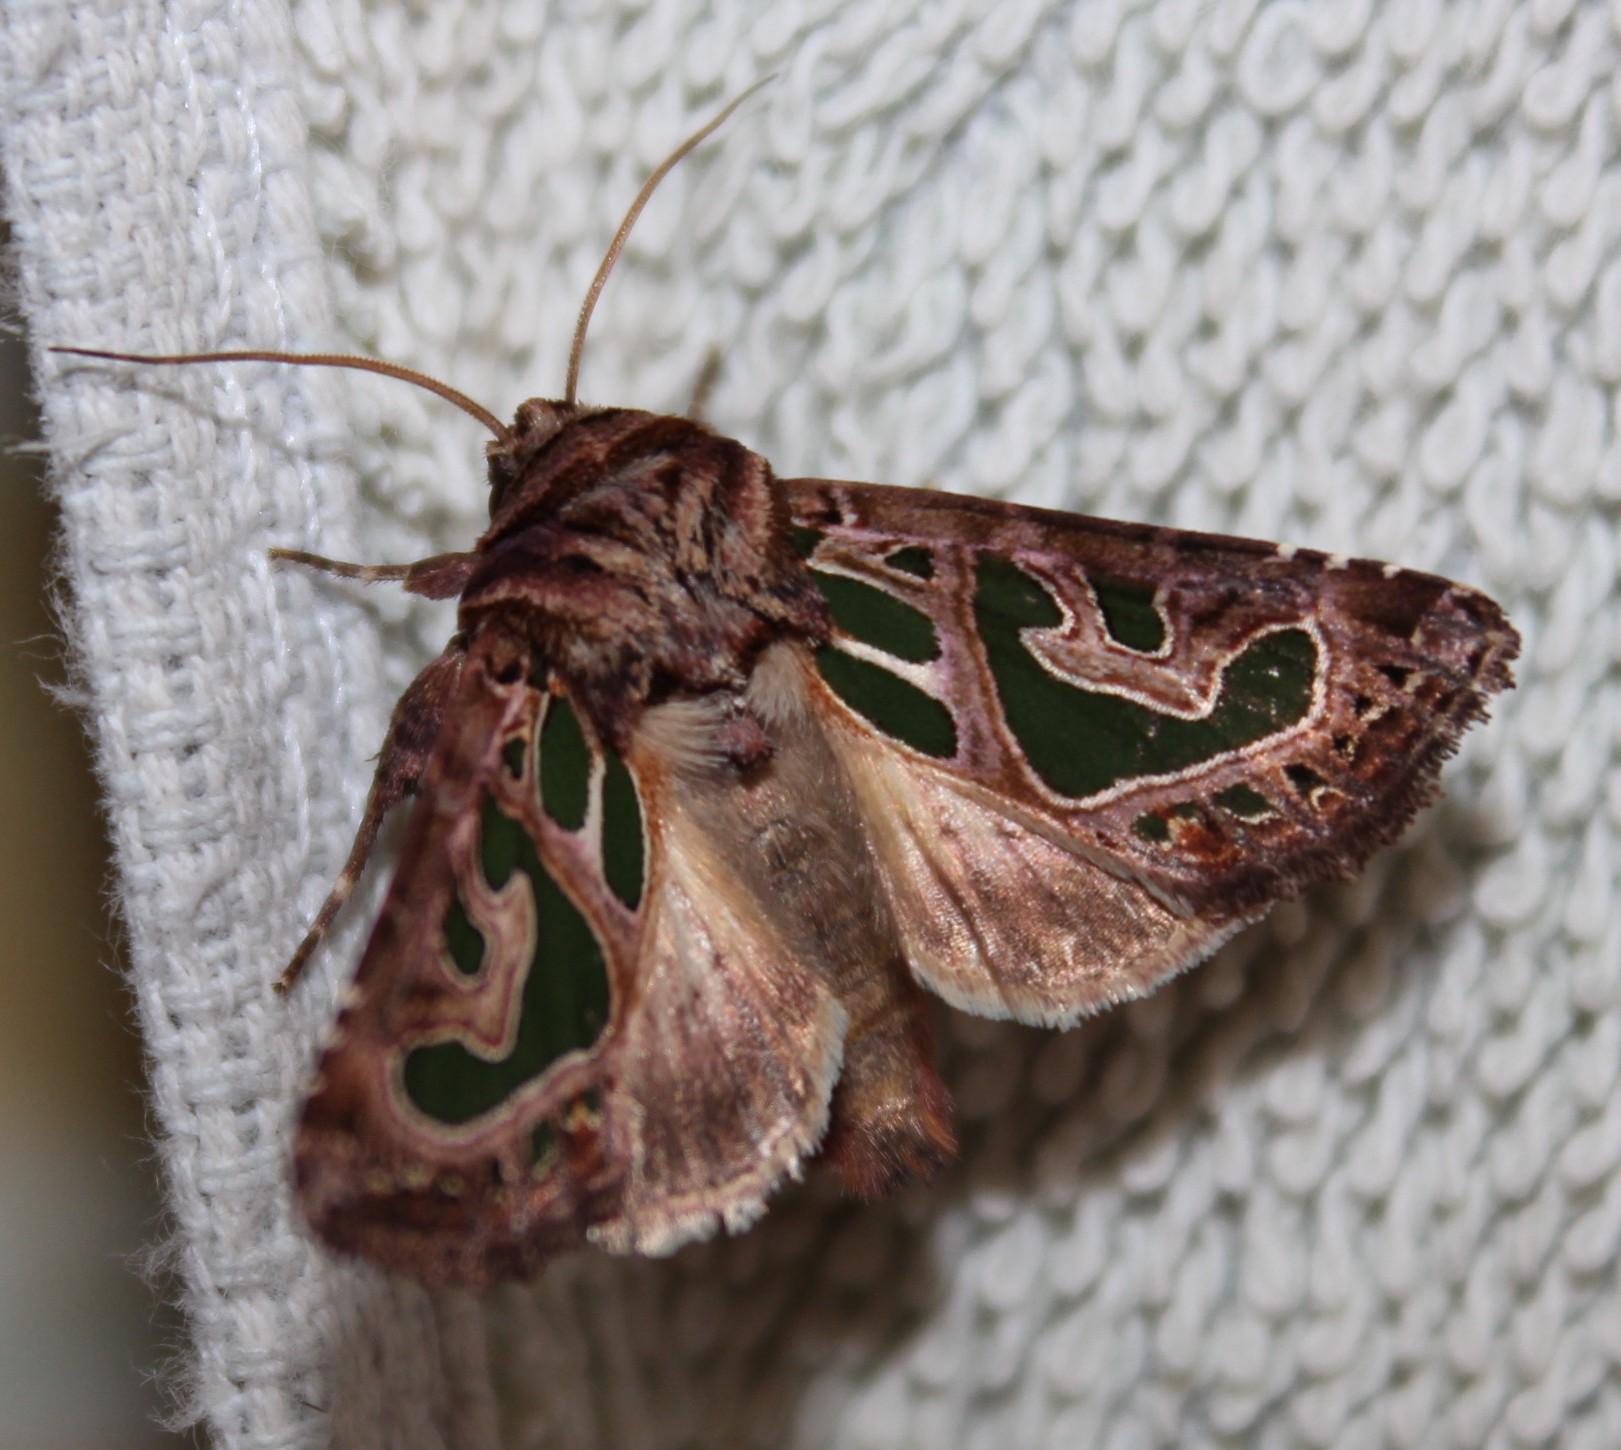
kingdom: Animalia
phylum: Arthropoda
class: Insecta
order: Lepidoptera
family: Noctuidae
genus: Compsotata
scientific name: Compsotata elegantissima
